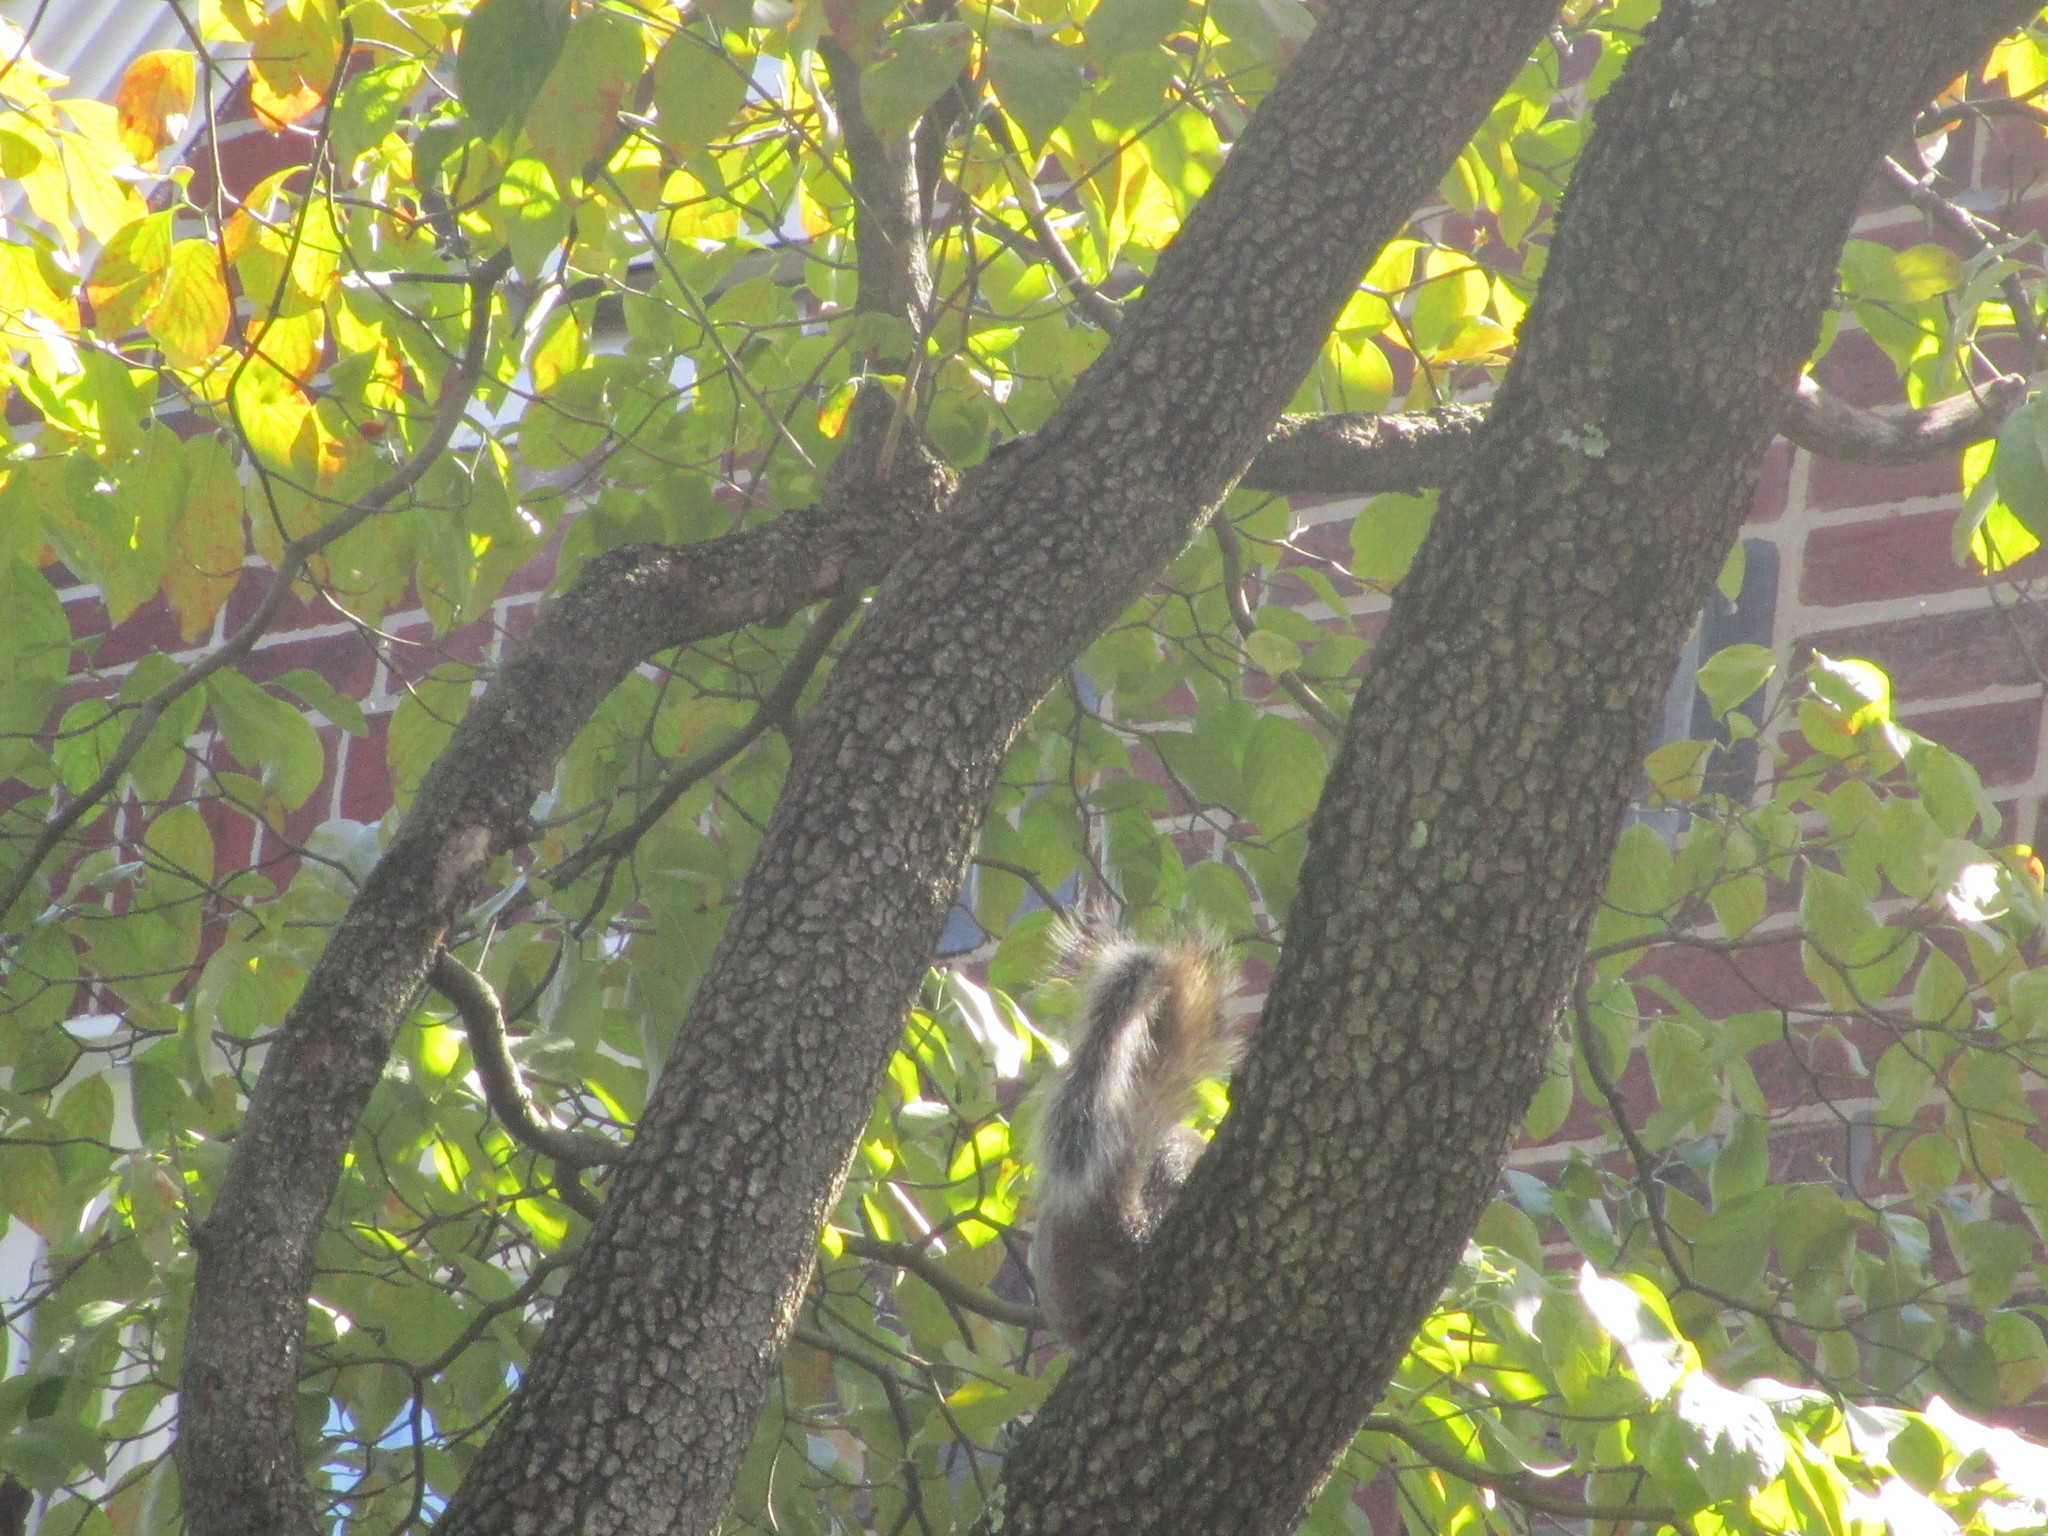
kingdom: Animalia
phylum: Chordata
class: Mammalia
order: Rodentia
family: Sciuridae
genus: Sciurus
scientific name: Sciurus carolinensis
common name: Eastern gray squirrel
